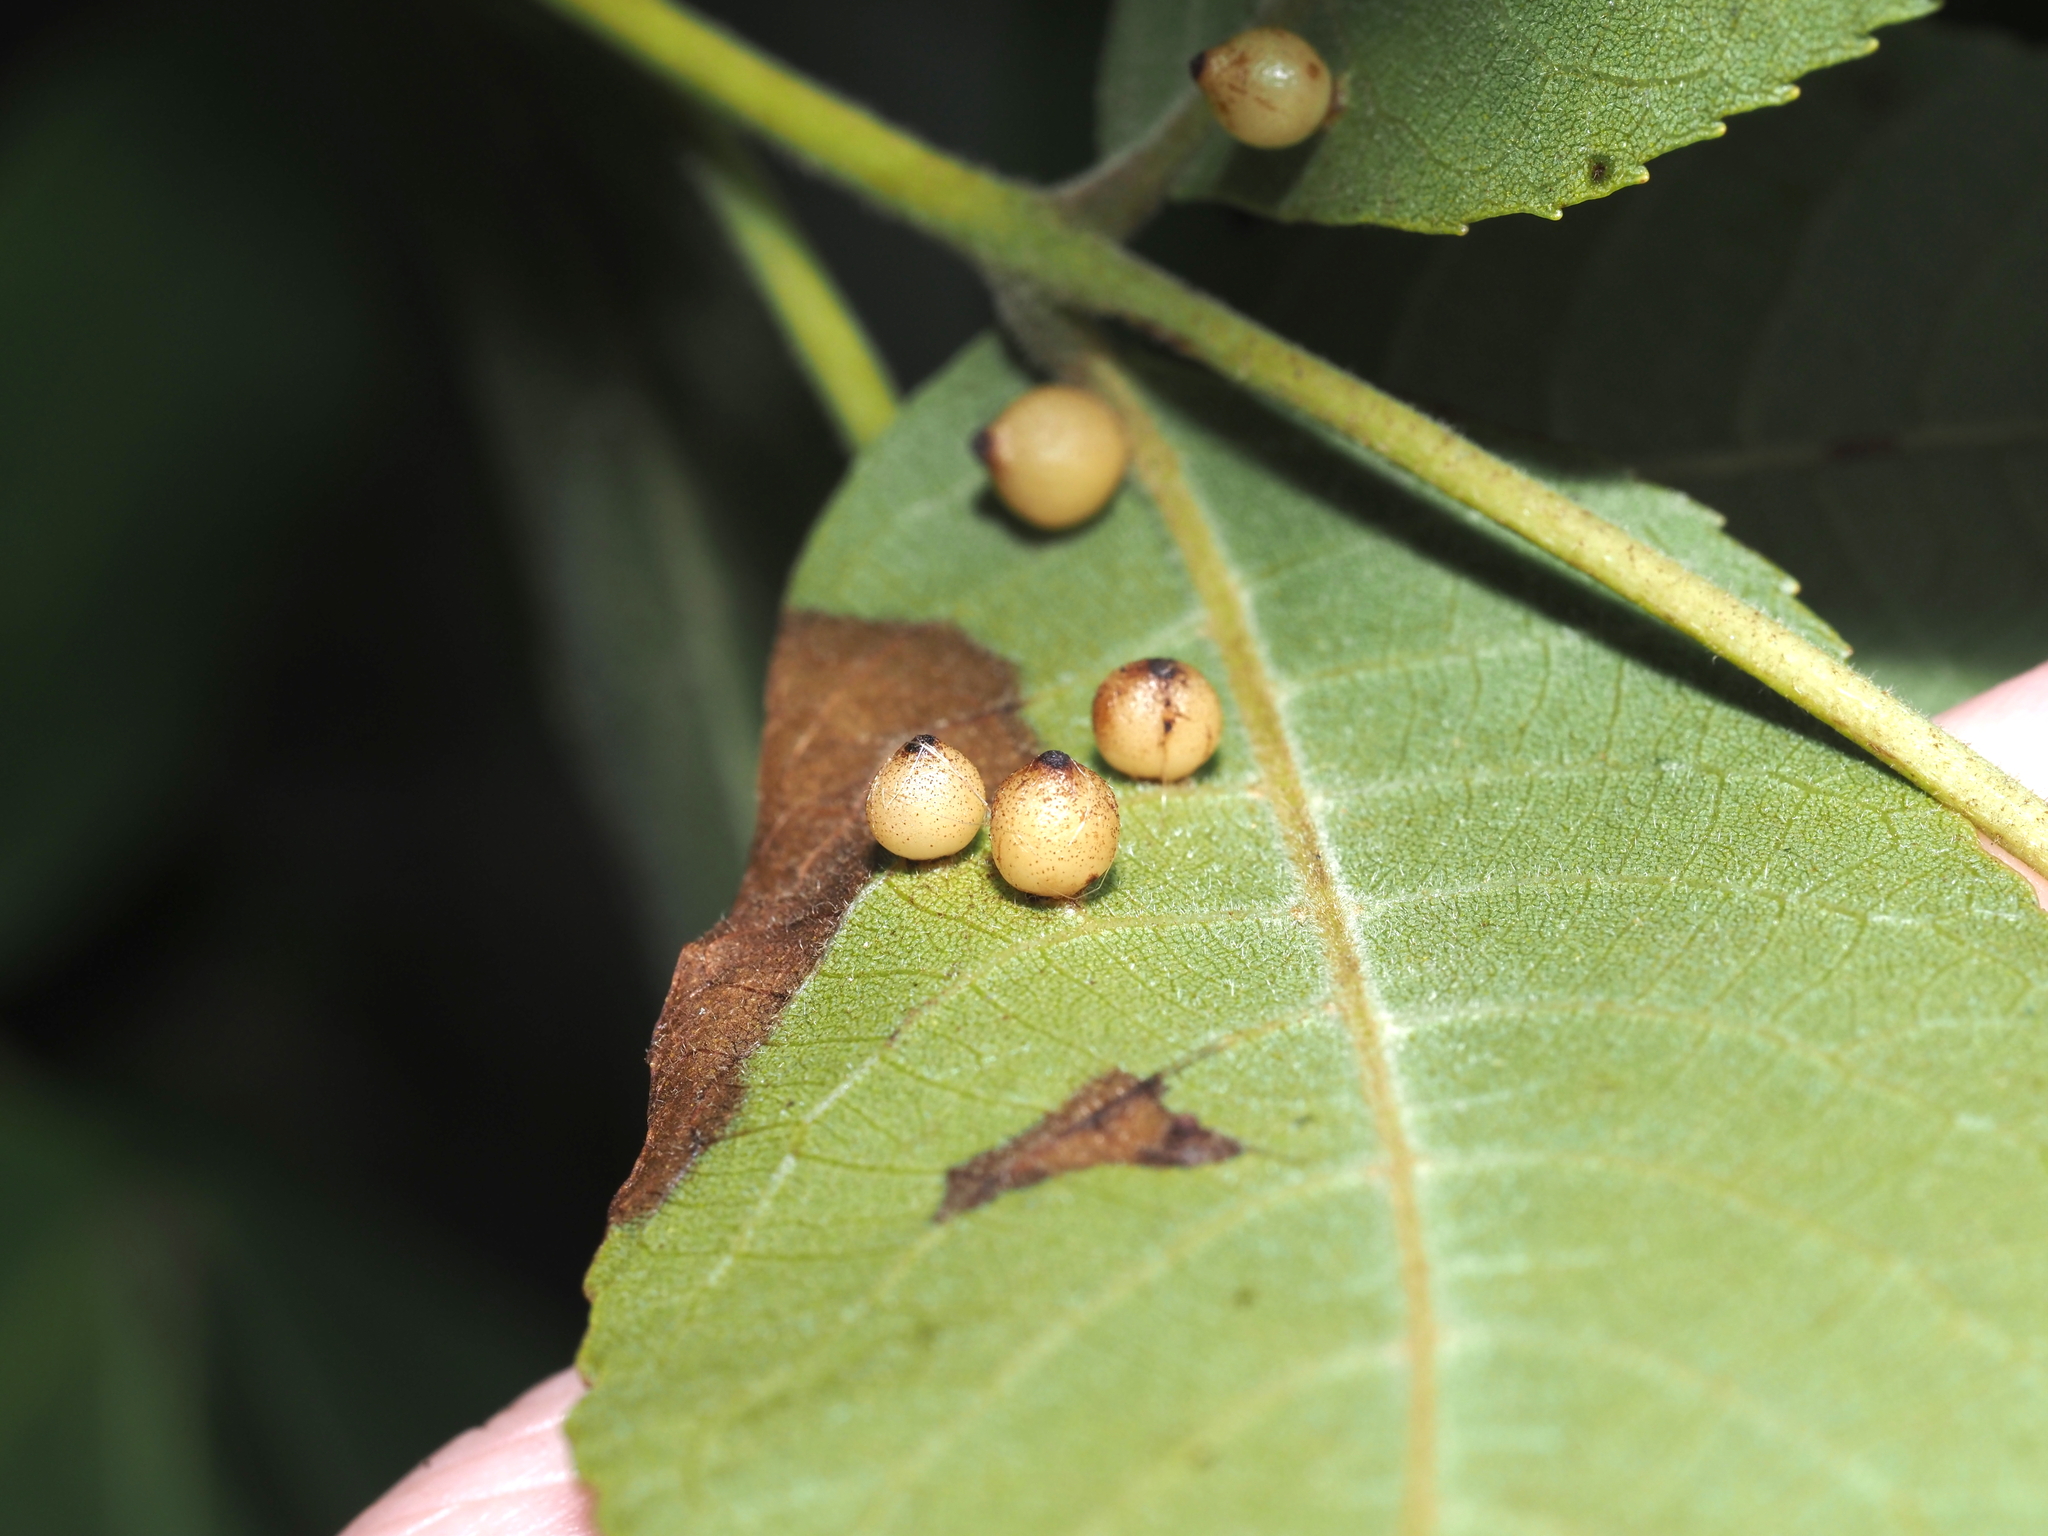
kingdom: Animalia
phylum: Arthropoda
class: Insecta
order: Diptera
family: Cecidomyiidae
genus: Caryomyia
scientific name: Caryomyia caryae
